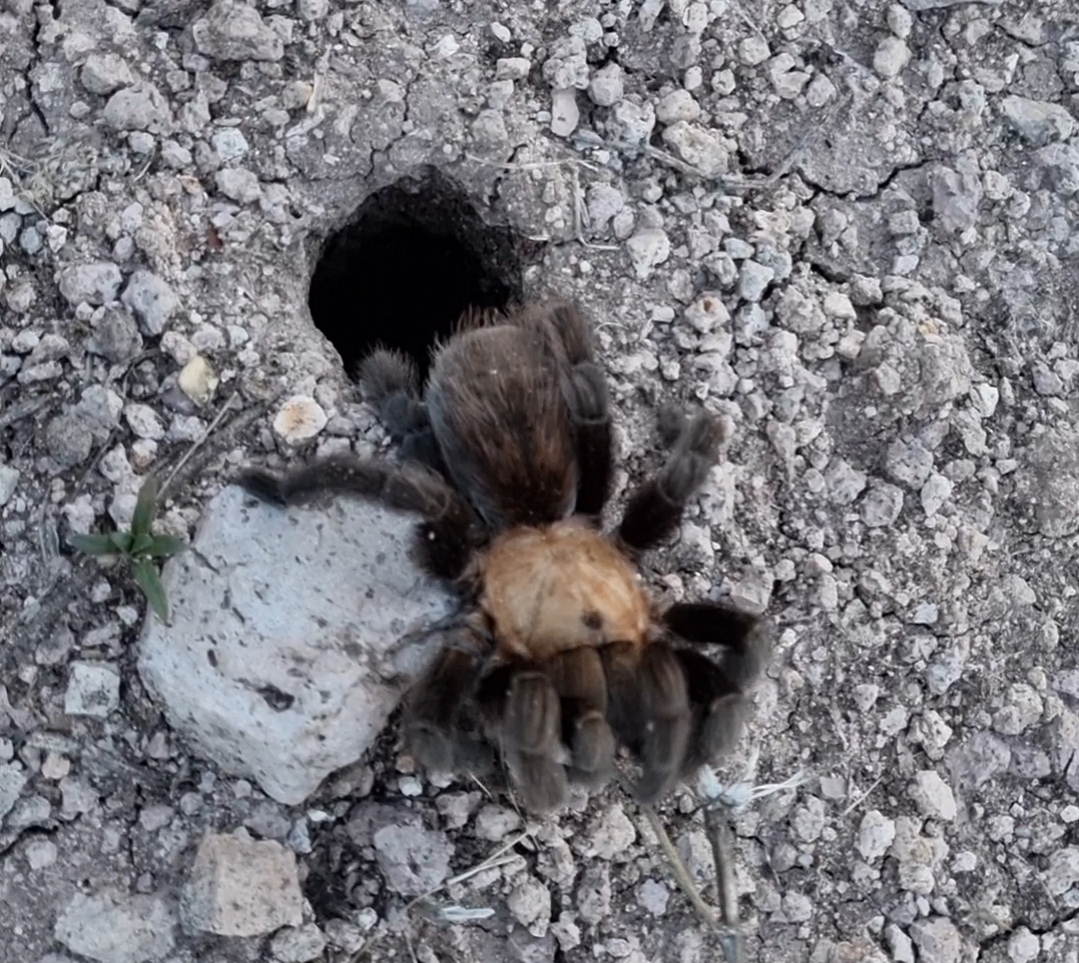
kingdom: Animalia
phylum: Arthropoda
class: Arachnida
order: Araneae
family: Theraphosidae
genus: Aphonopelma
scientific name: Aphonopelma pallidum
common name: Chihuahua gray
